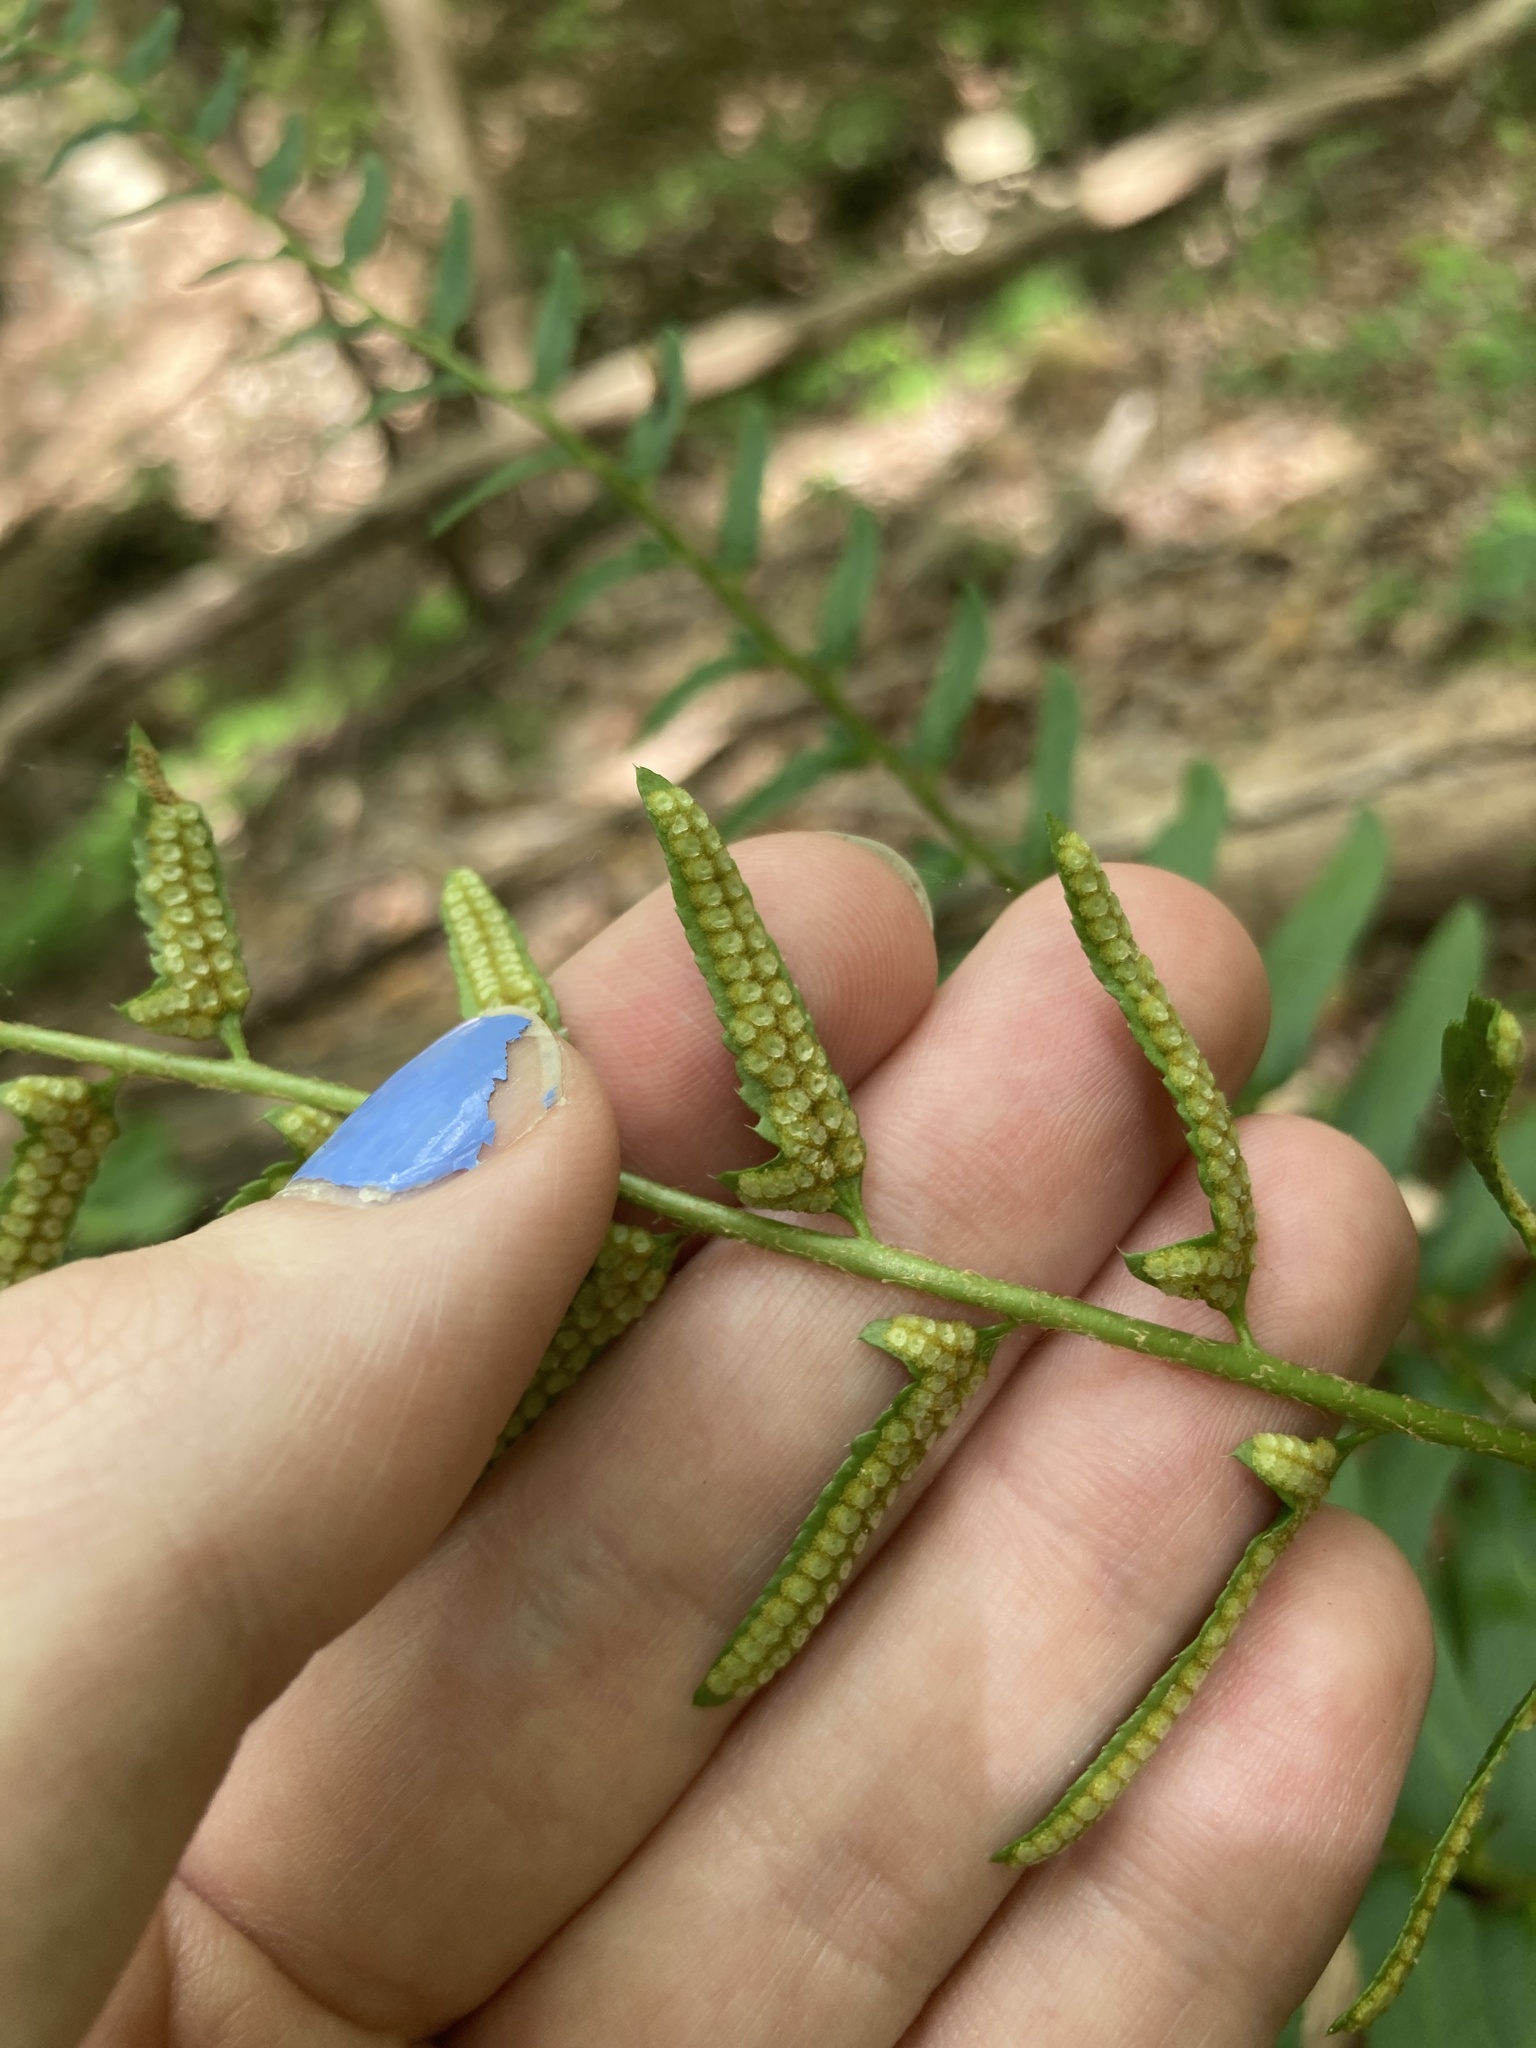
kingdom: Plantae
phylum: Tracheophyta
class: Polypodiopsida
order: Polypodiales
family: Dryopteridaceae
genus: Polystichum
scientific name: Polystichum acrostichoides
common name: Christmas fern
